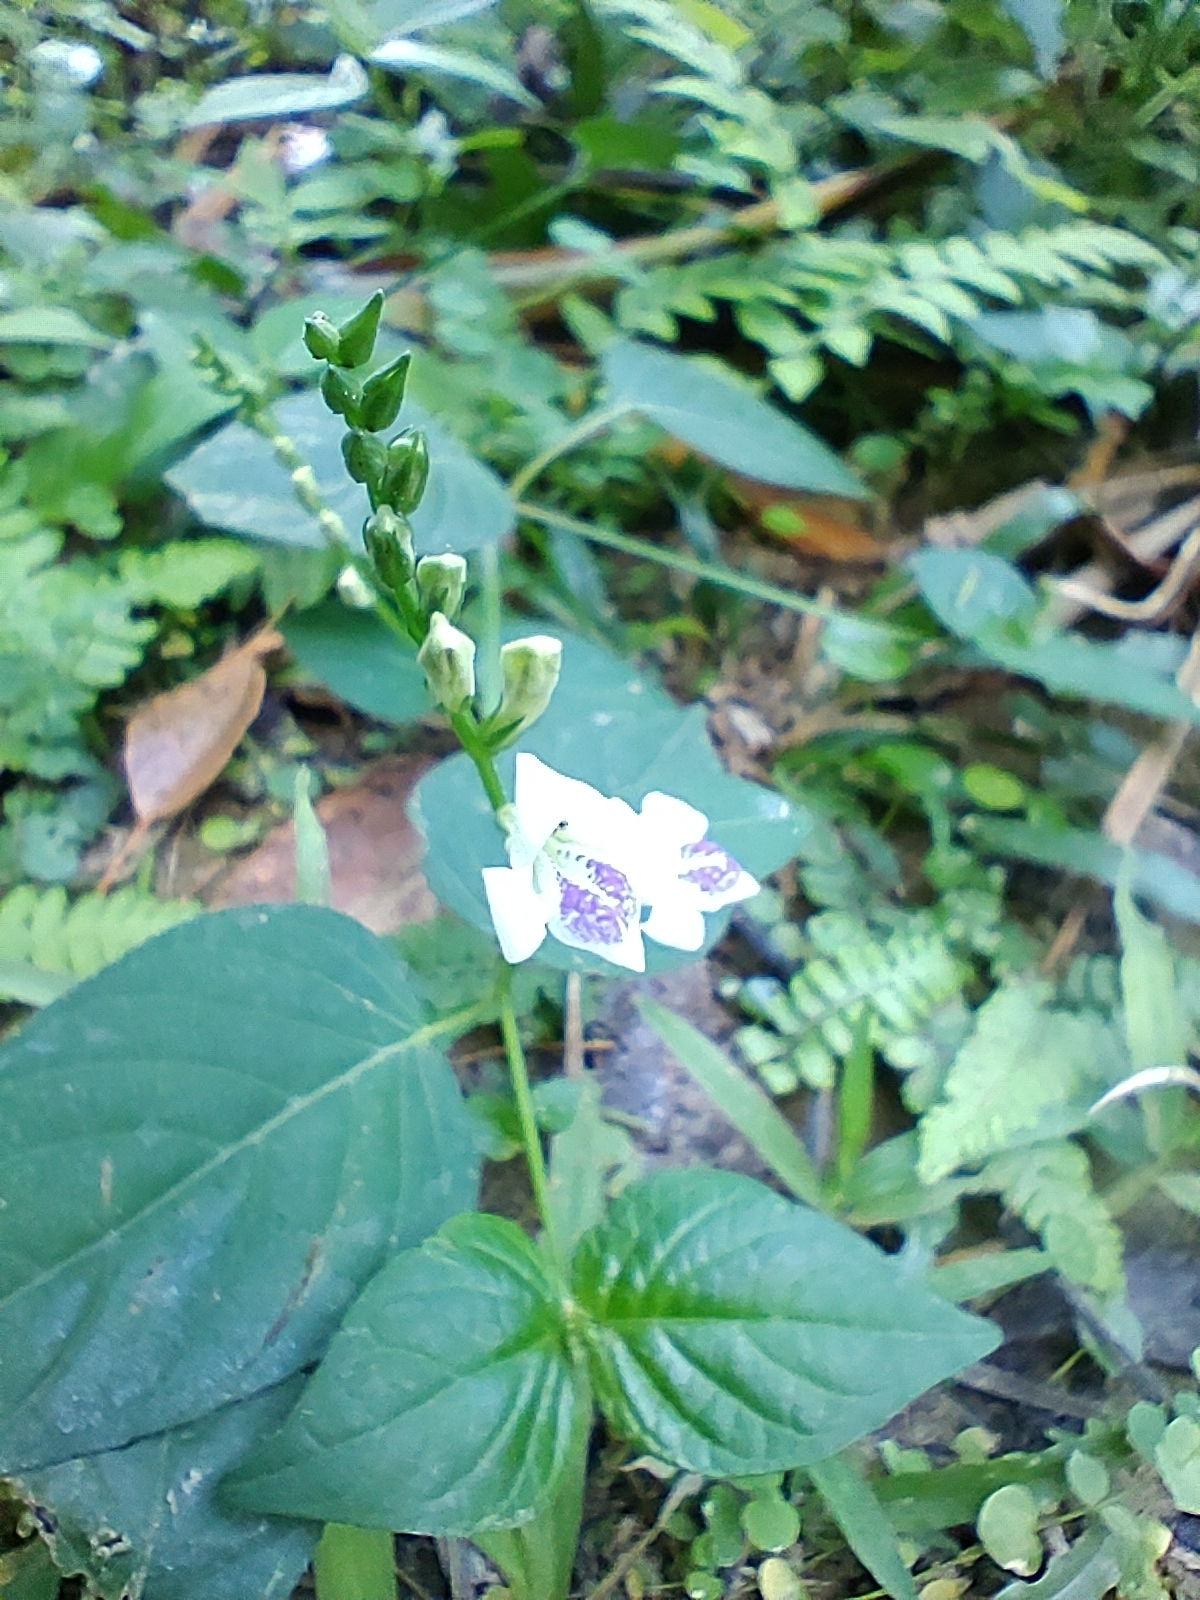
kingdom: Plantae
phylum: Tracheophyta
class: Magnoliopsida
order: Lamiales
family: Acanthaceae
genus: Asystasia
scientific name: Asystasia intrusa
